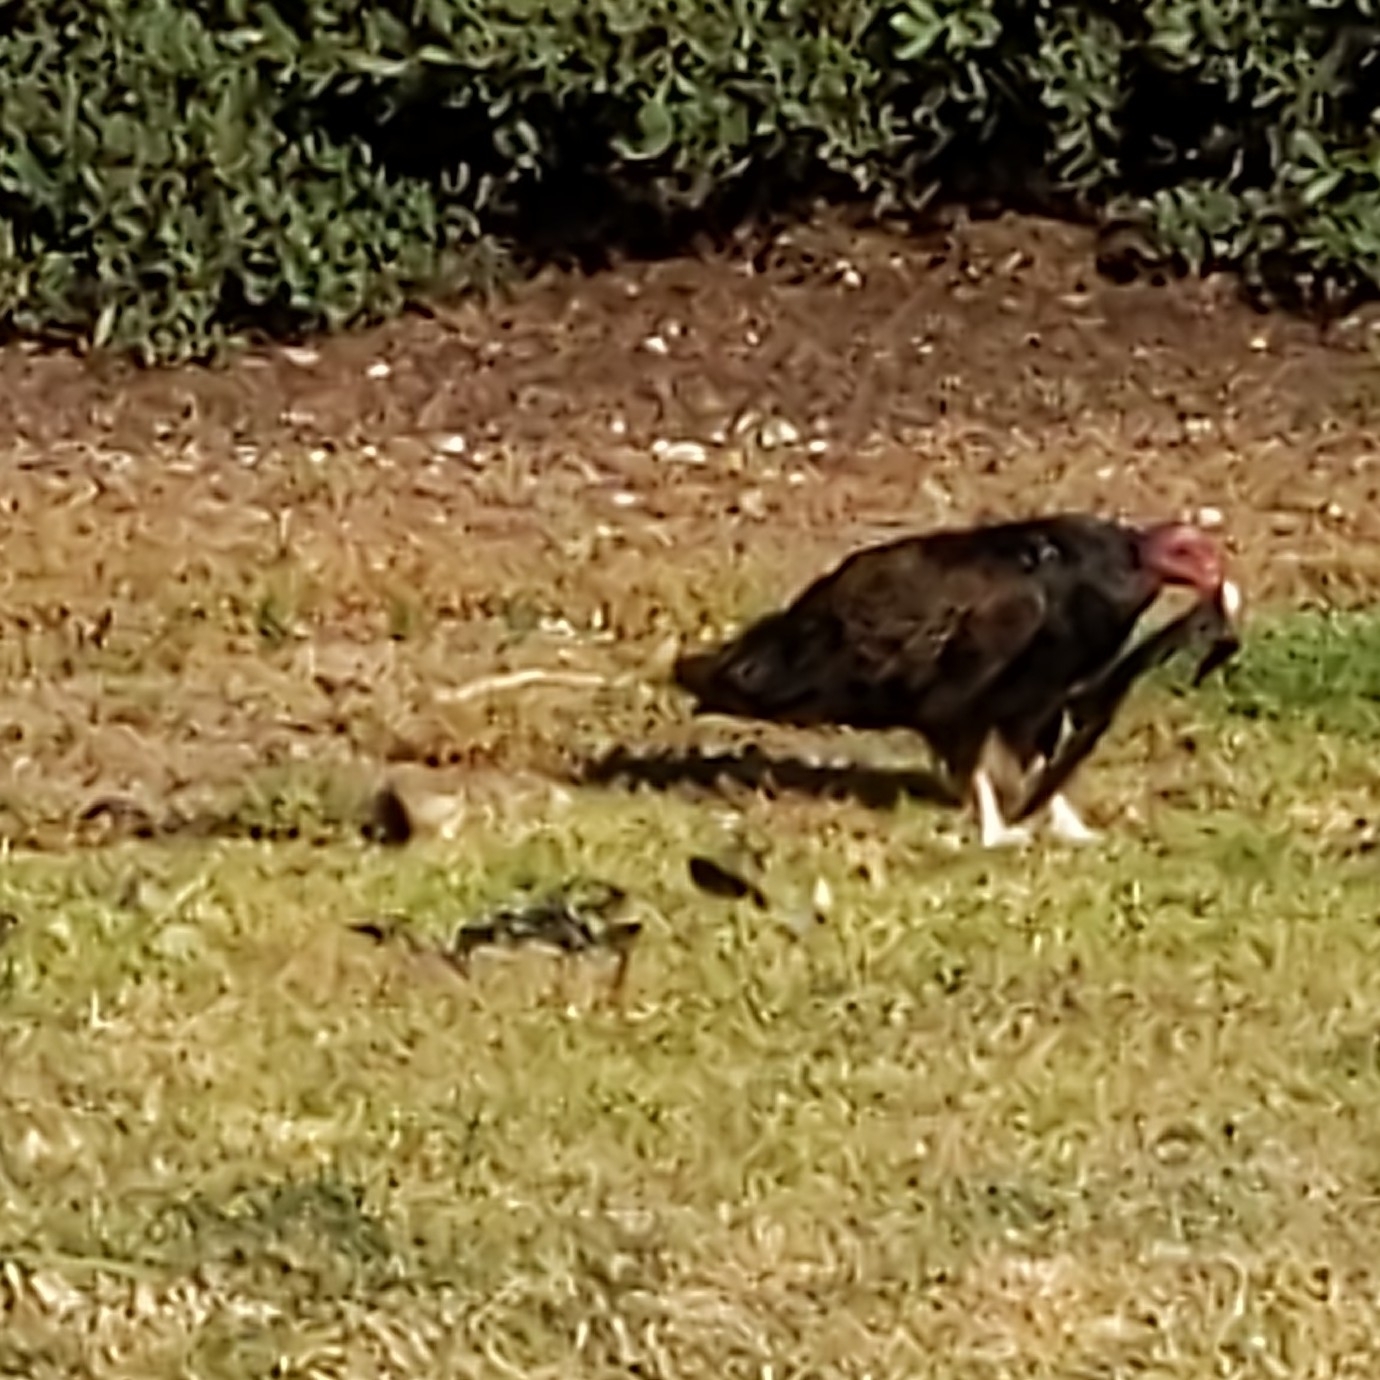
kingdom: Animalia
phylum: Chordata
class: Aves
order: Accipitriformes
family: Cathartidae
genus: Cathartes
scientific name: Cathartes aura
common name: Turkey vulture
